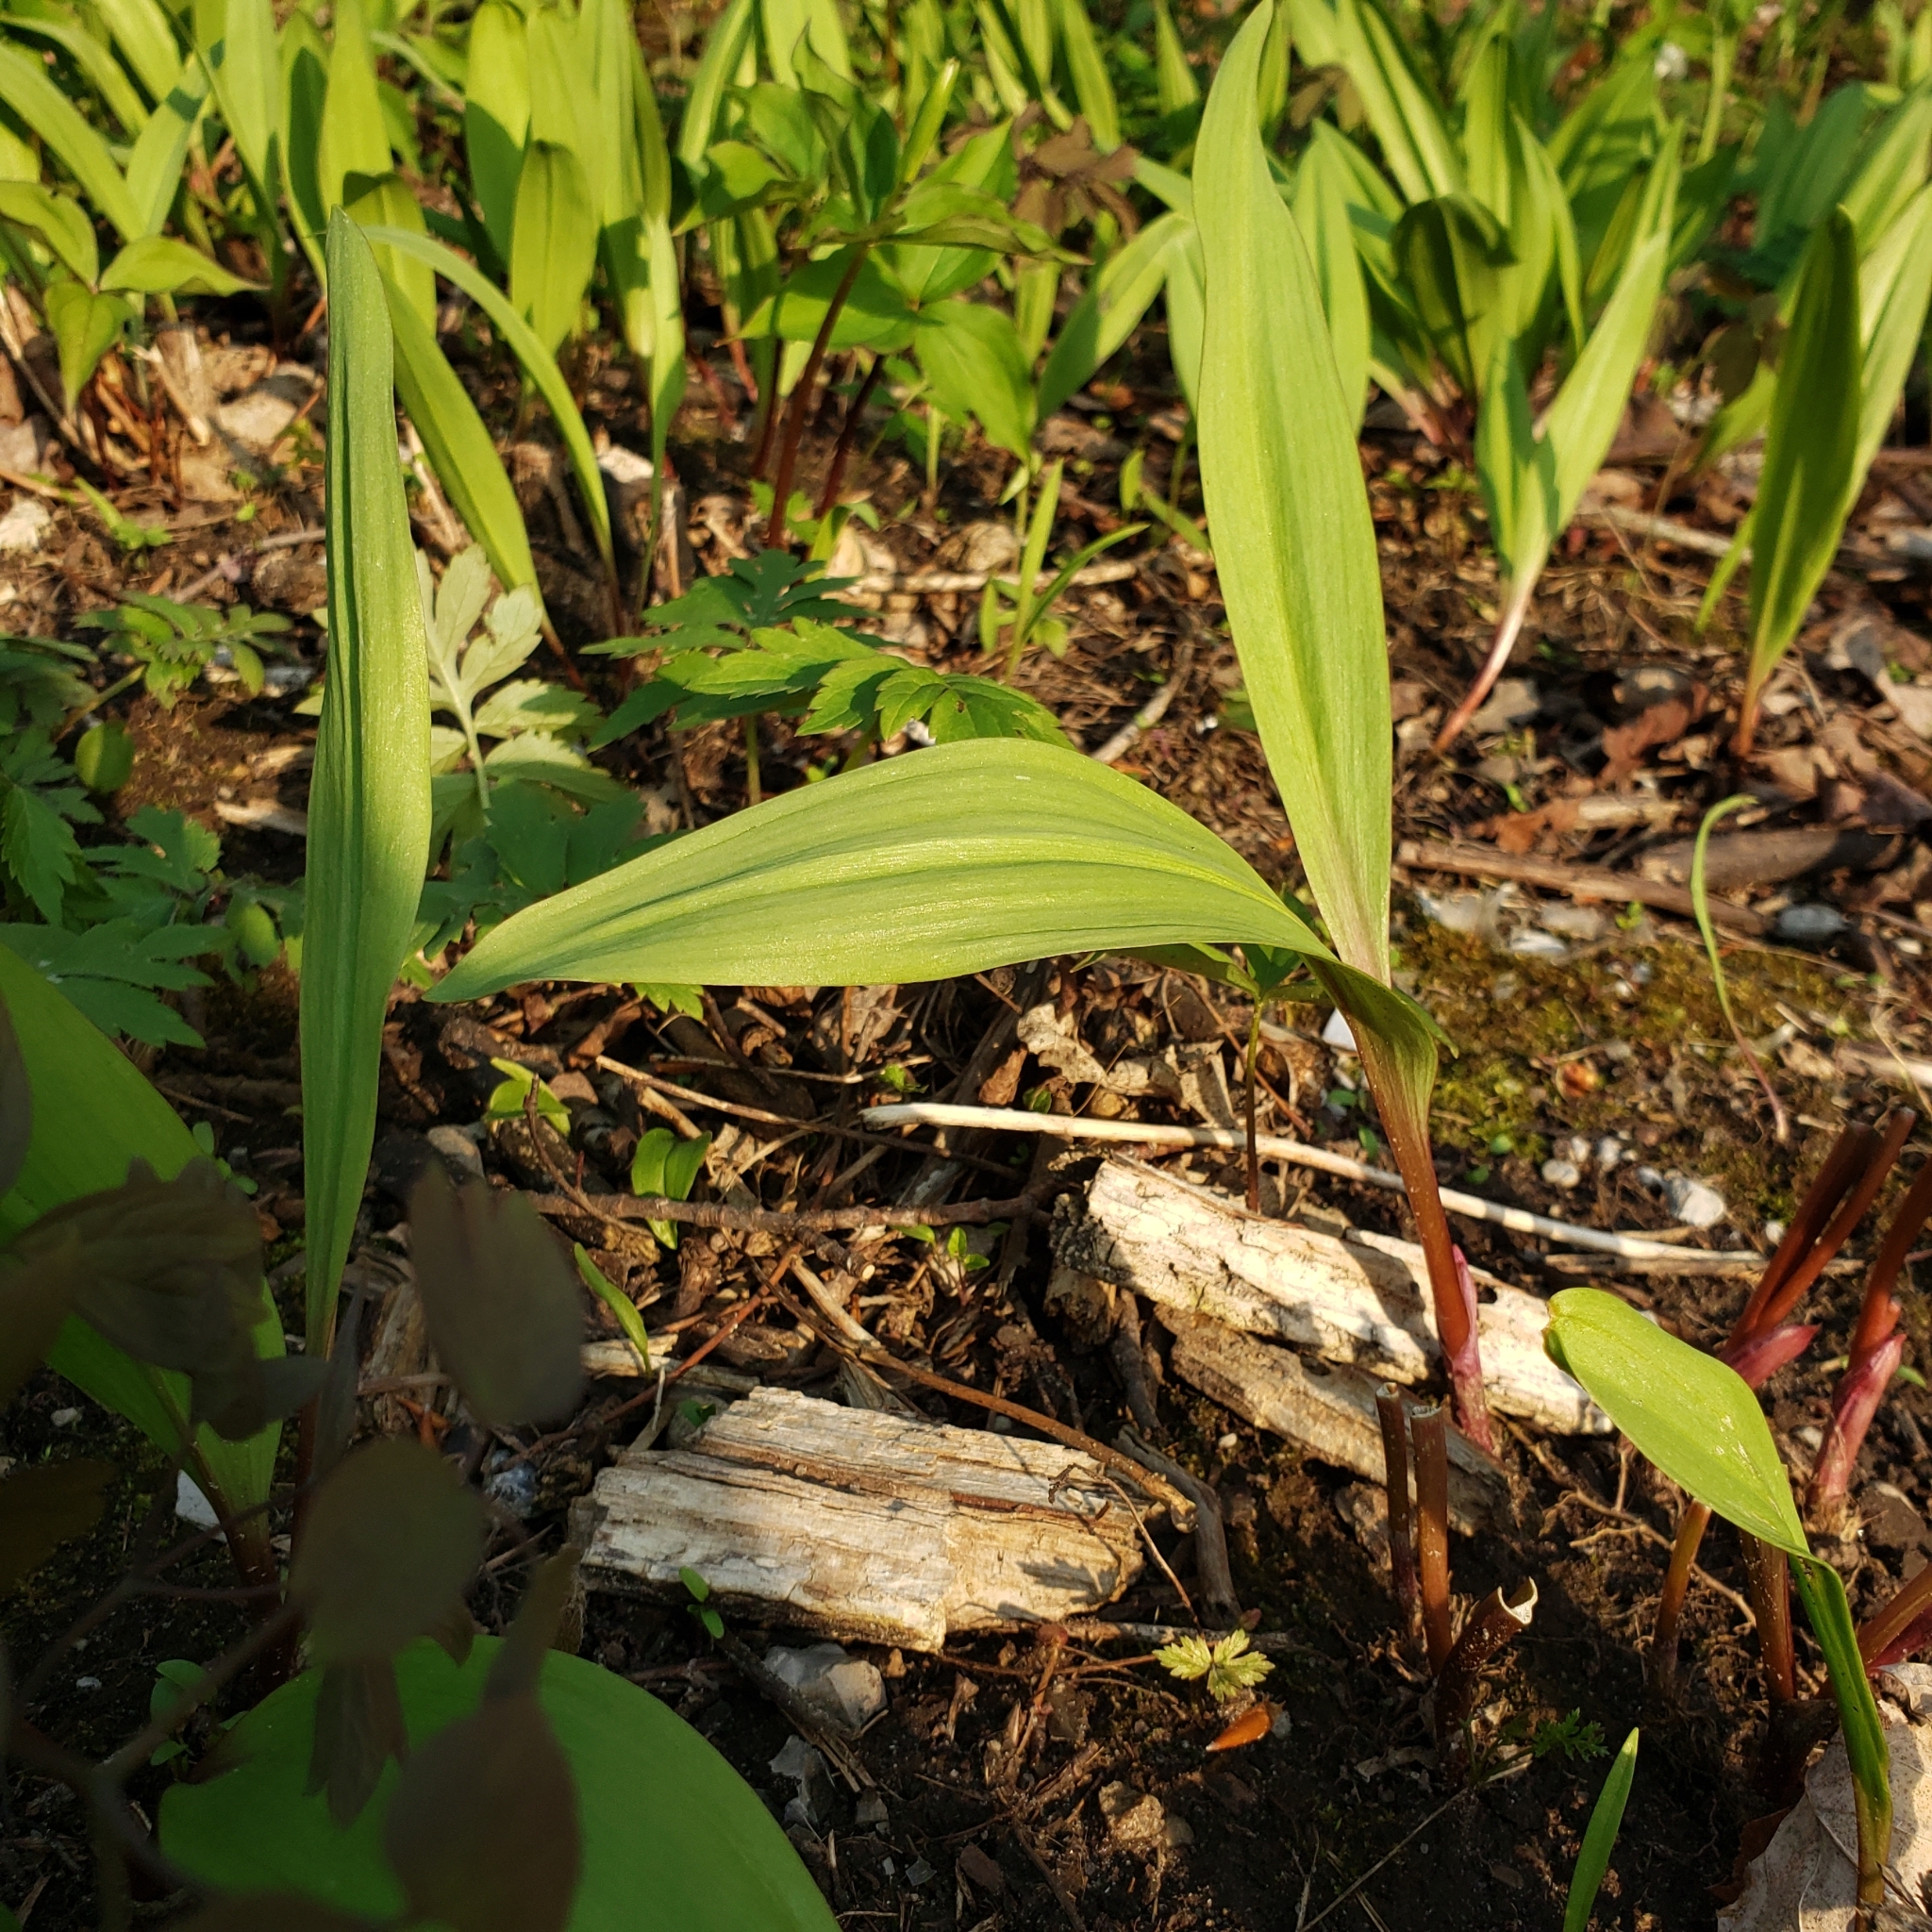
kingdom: Plantae
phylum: Tracheophyta
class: Liliopsida
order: Asparagales
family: Amaryllidaceae
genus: Allium
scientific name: Allium tricoccum
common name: Ramp
